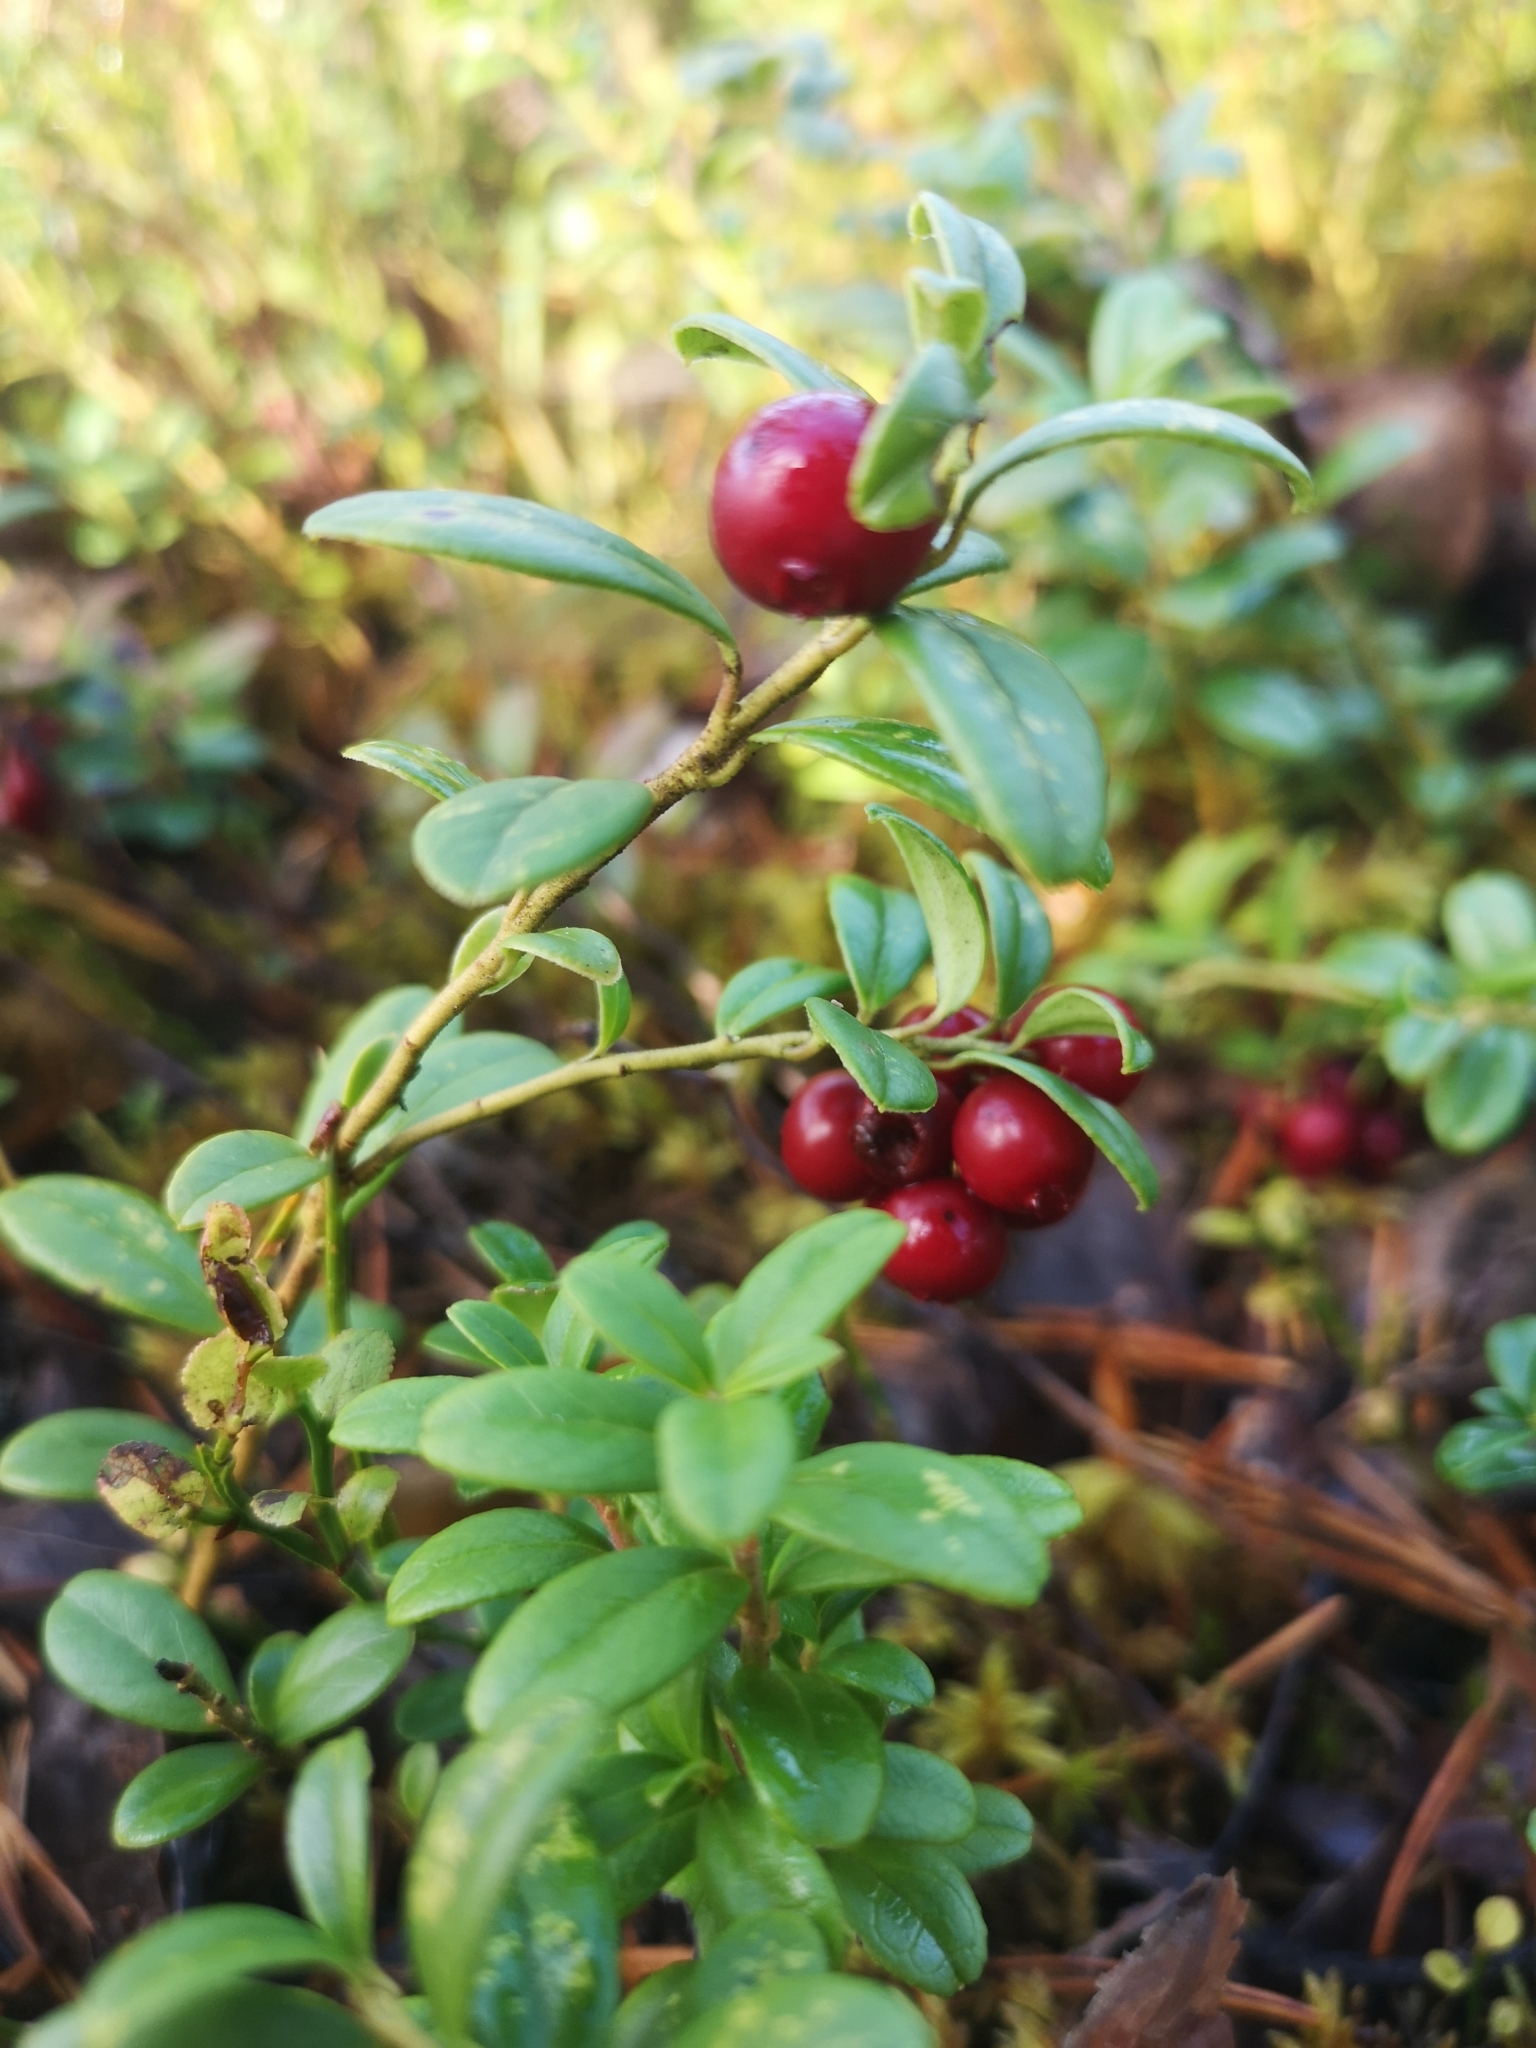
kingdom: Plantae
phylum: Tracheophyta
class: Magnoliopsida
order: Ericales
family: Ericaceae
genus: Vaccinium
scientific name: Vaccinium vitis-idaea
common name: Cowberry
